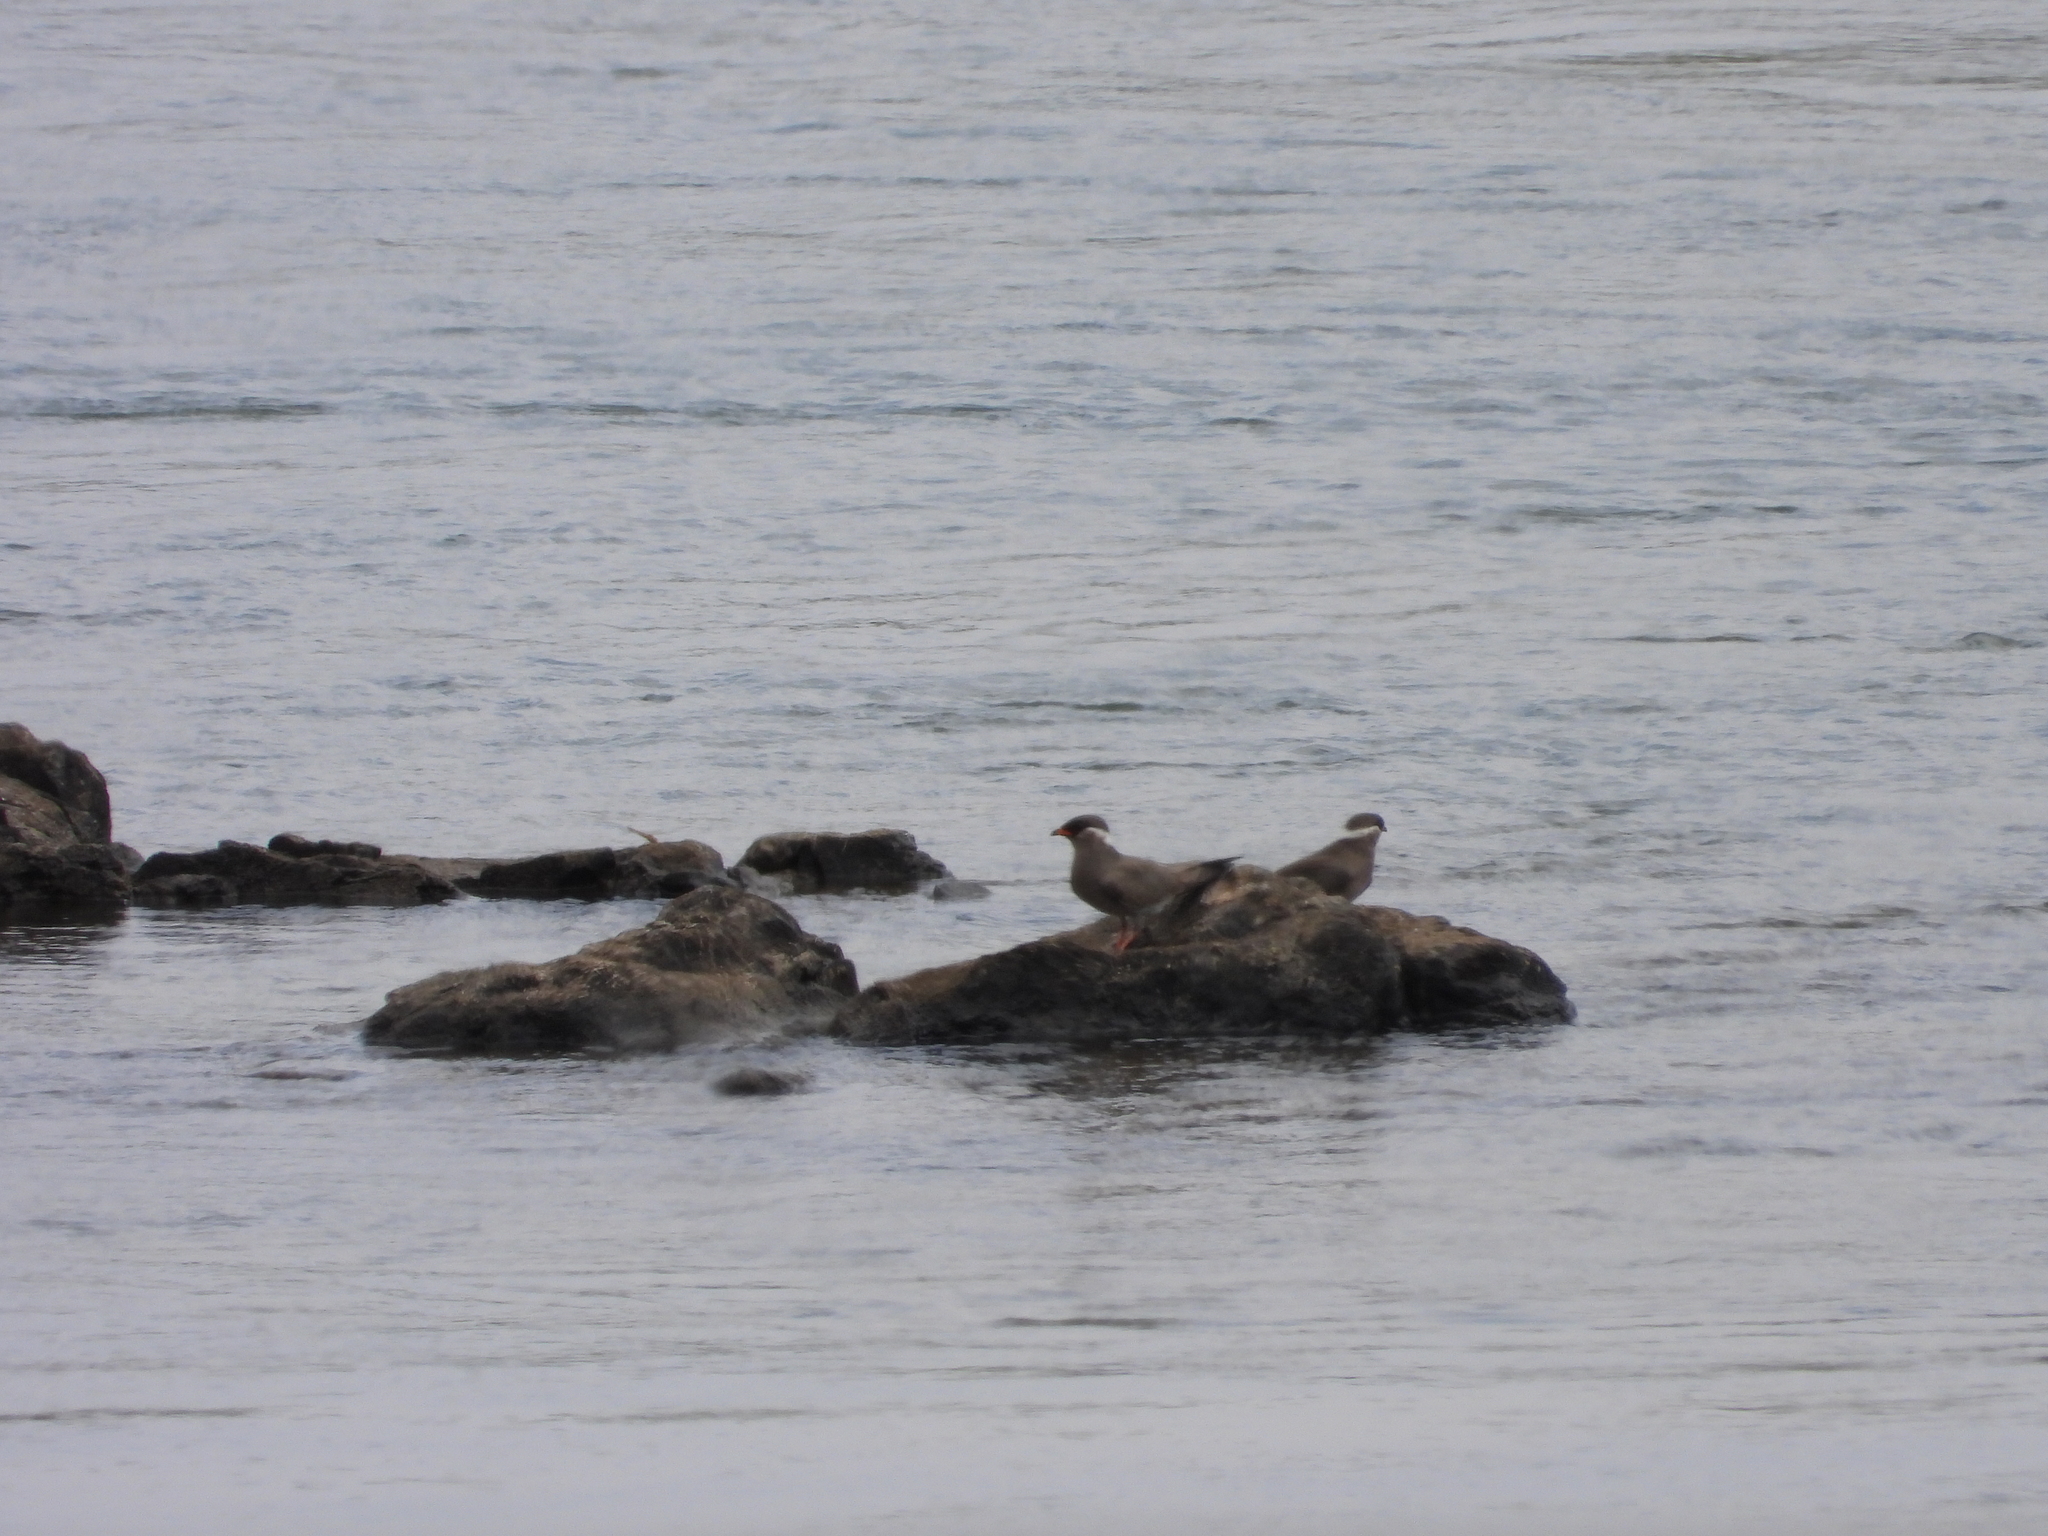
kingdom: Animalia
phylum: Chordata
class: Aves
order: Charadriiformes
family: Glareolidae
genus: Glareola
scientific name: Glareola nuchalis
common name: Rock pratincole
